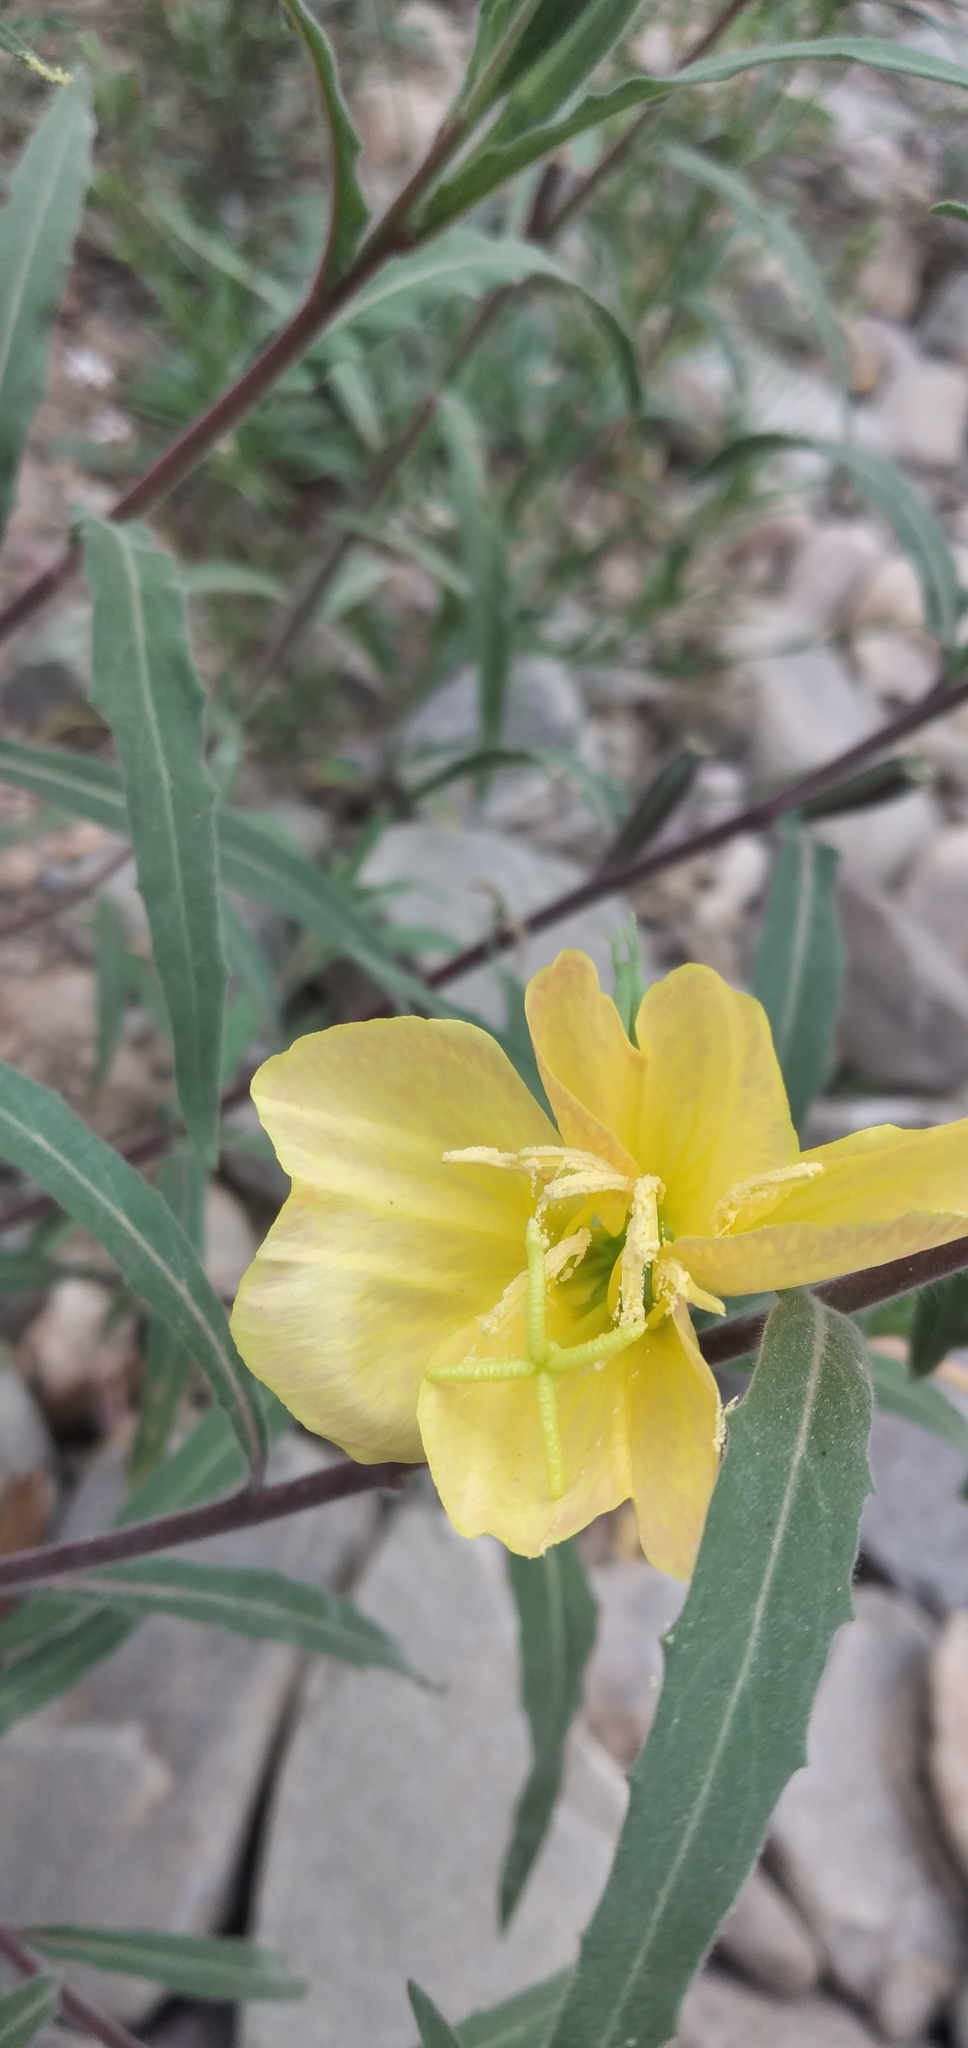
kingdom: Plantae
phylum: Tracheophyta
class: Magnoliopsida
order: Myrtales
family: Onagraceae
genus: Oenothera
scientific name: Oenothera affinis
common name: Longflower evening primrose
